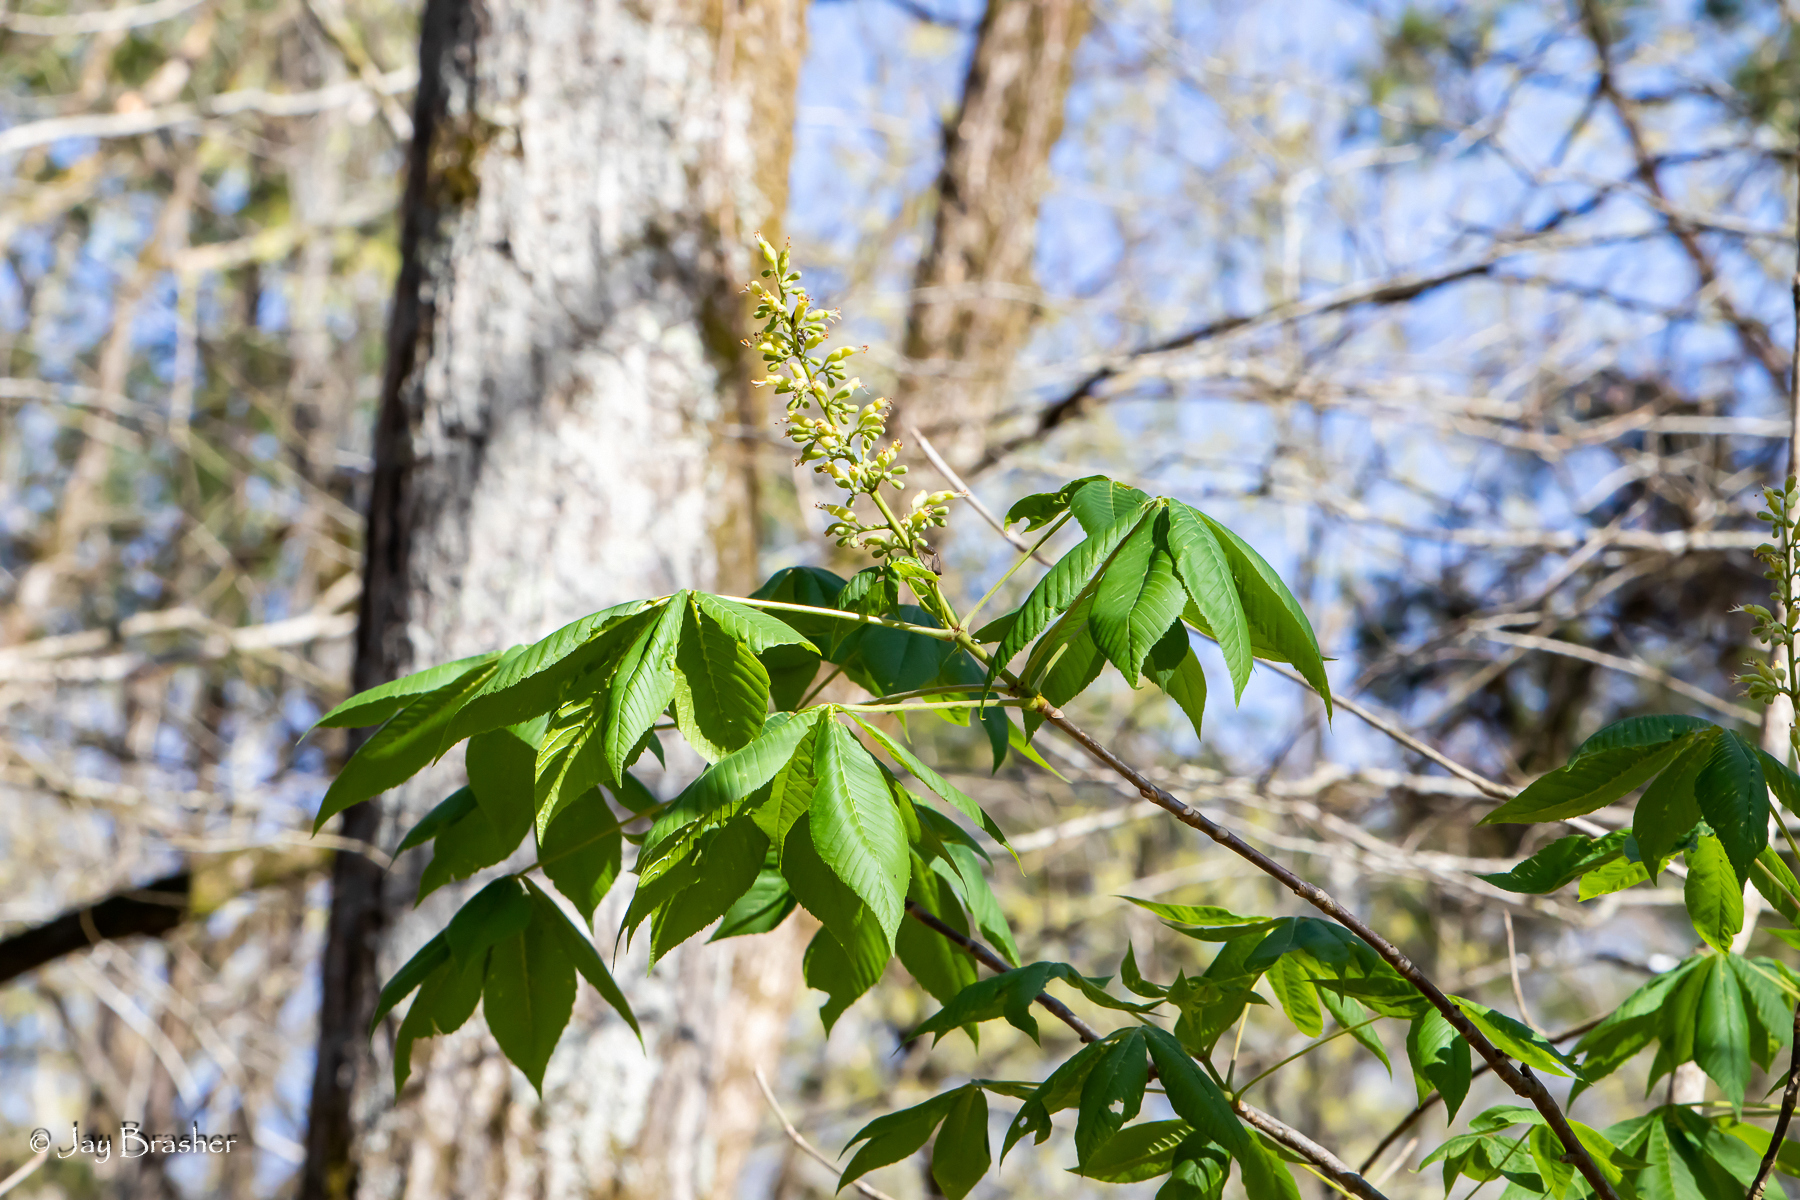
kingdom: Plantae
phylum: Tracheophyta
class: Magnoliopsida
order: Sapindales
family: Sapindaceae
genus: Aesculus
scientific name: Aesculus glabra
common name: Ohio buckeye
